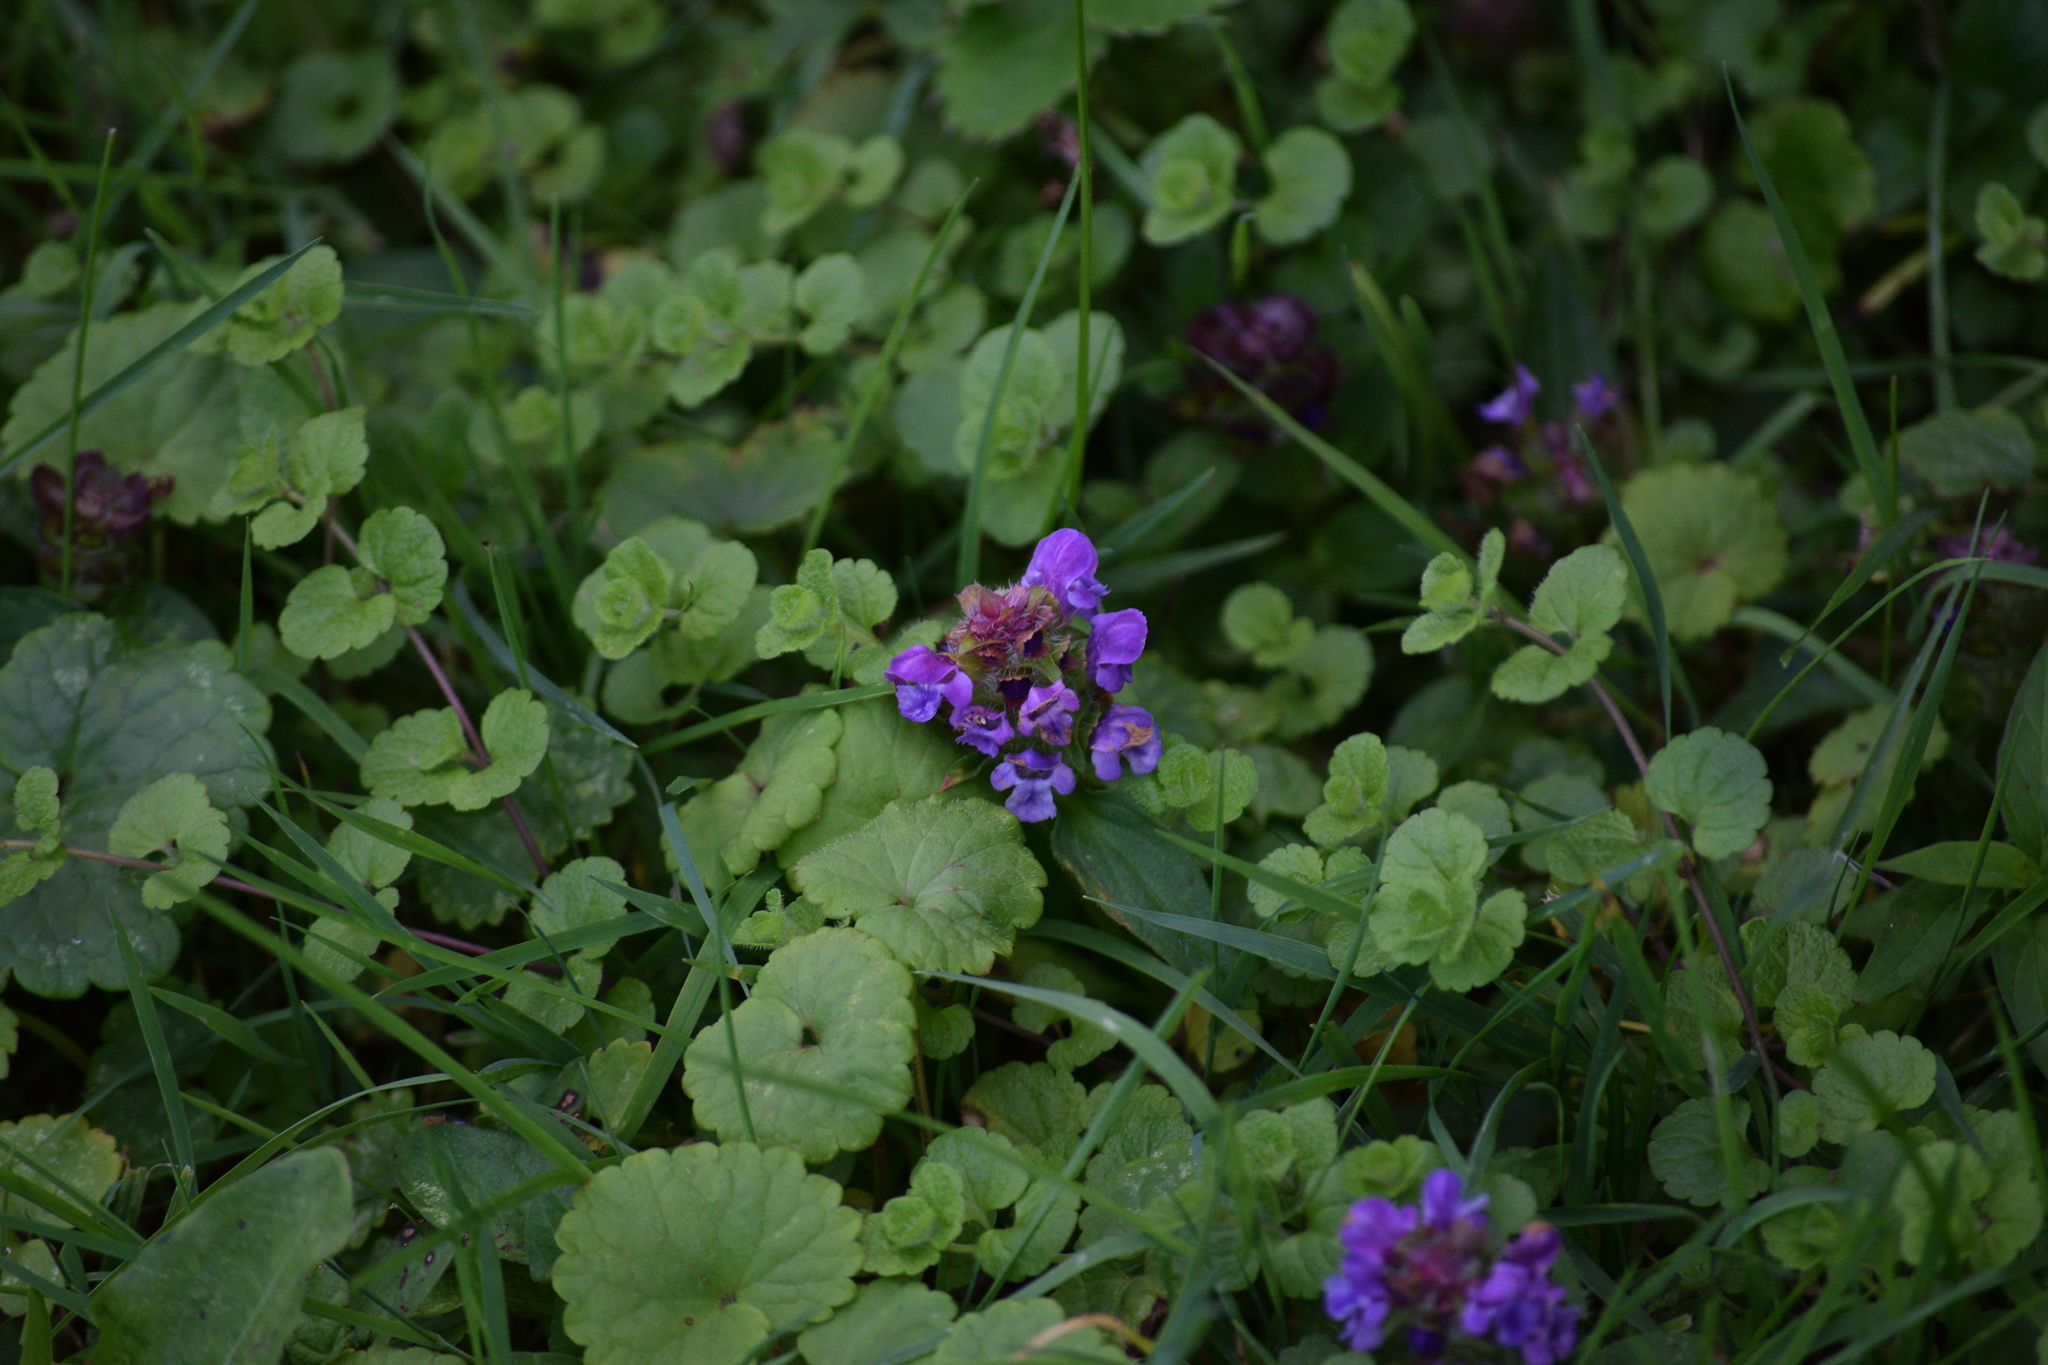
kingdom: Plantae
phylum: Tracheophyta
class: Magnoliopsida
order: Lamiales
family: Lamiaceae
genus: Prunella
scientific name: Prunella vulgaris
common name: Heal-all
